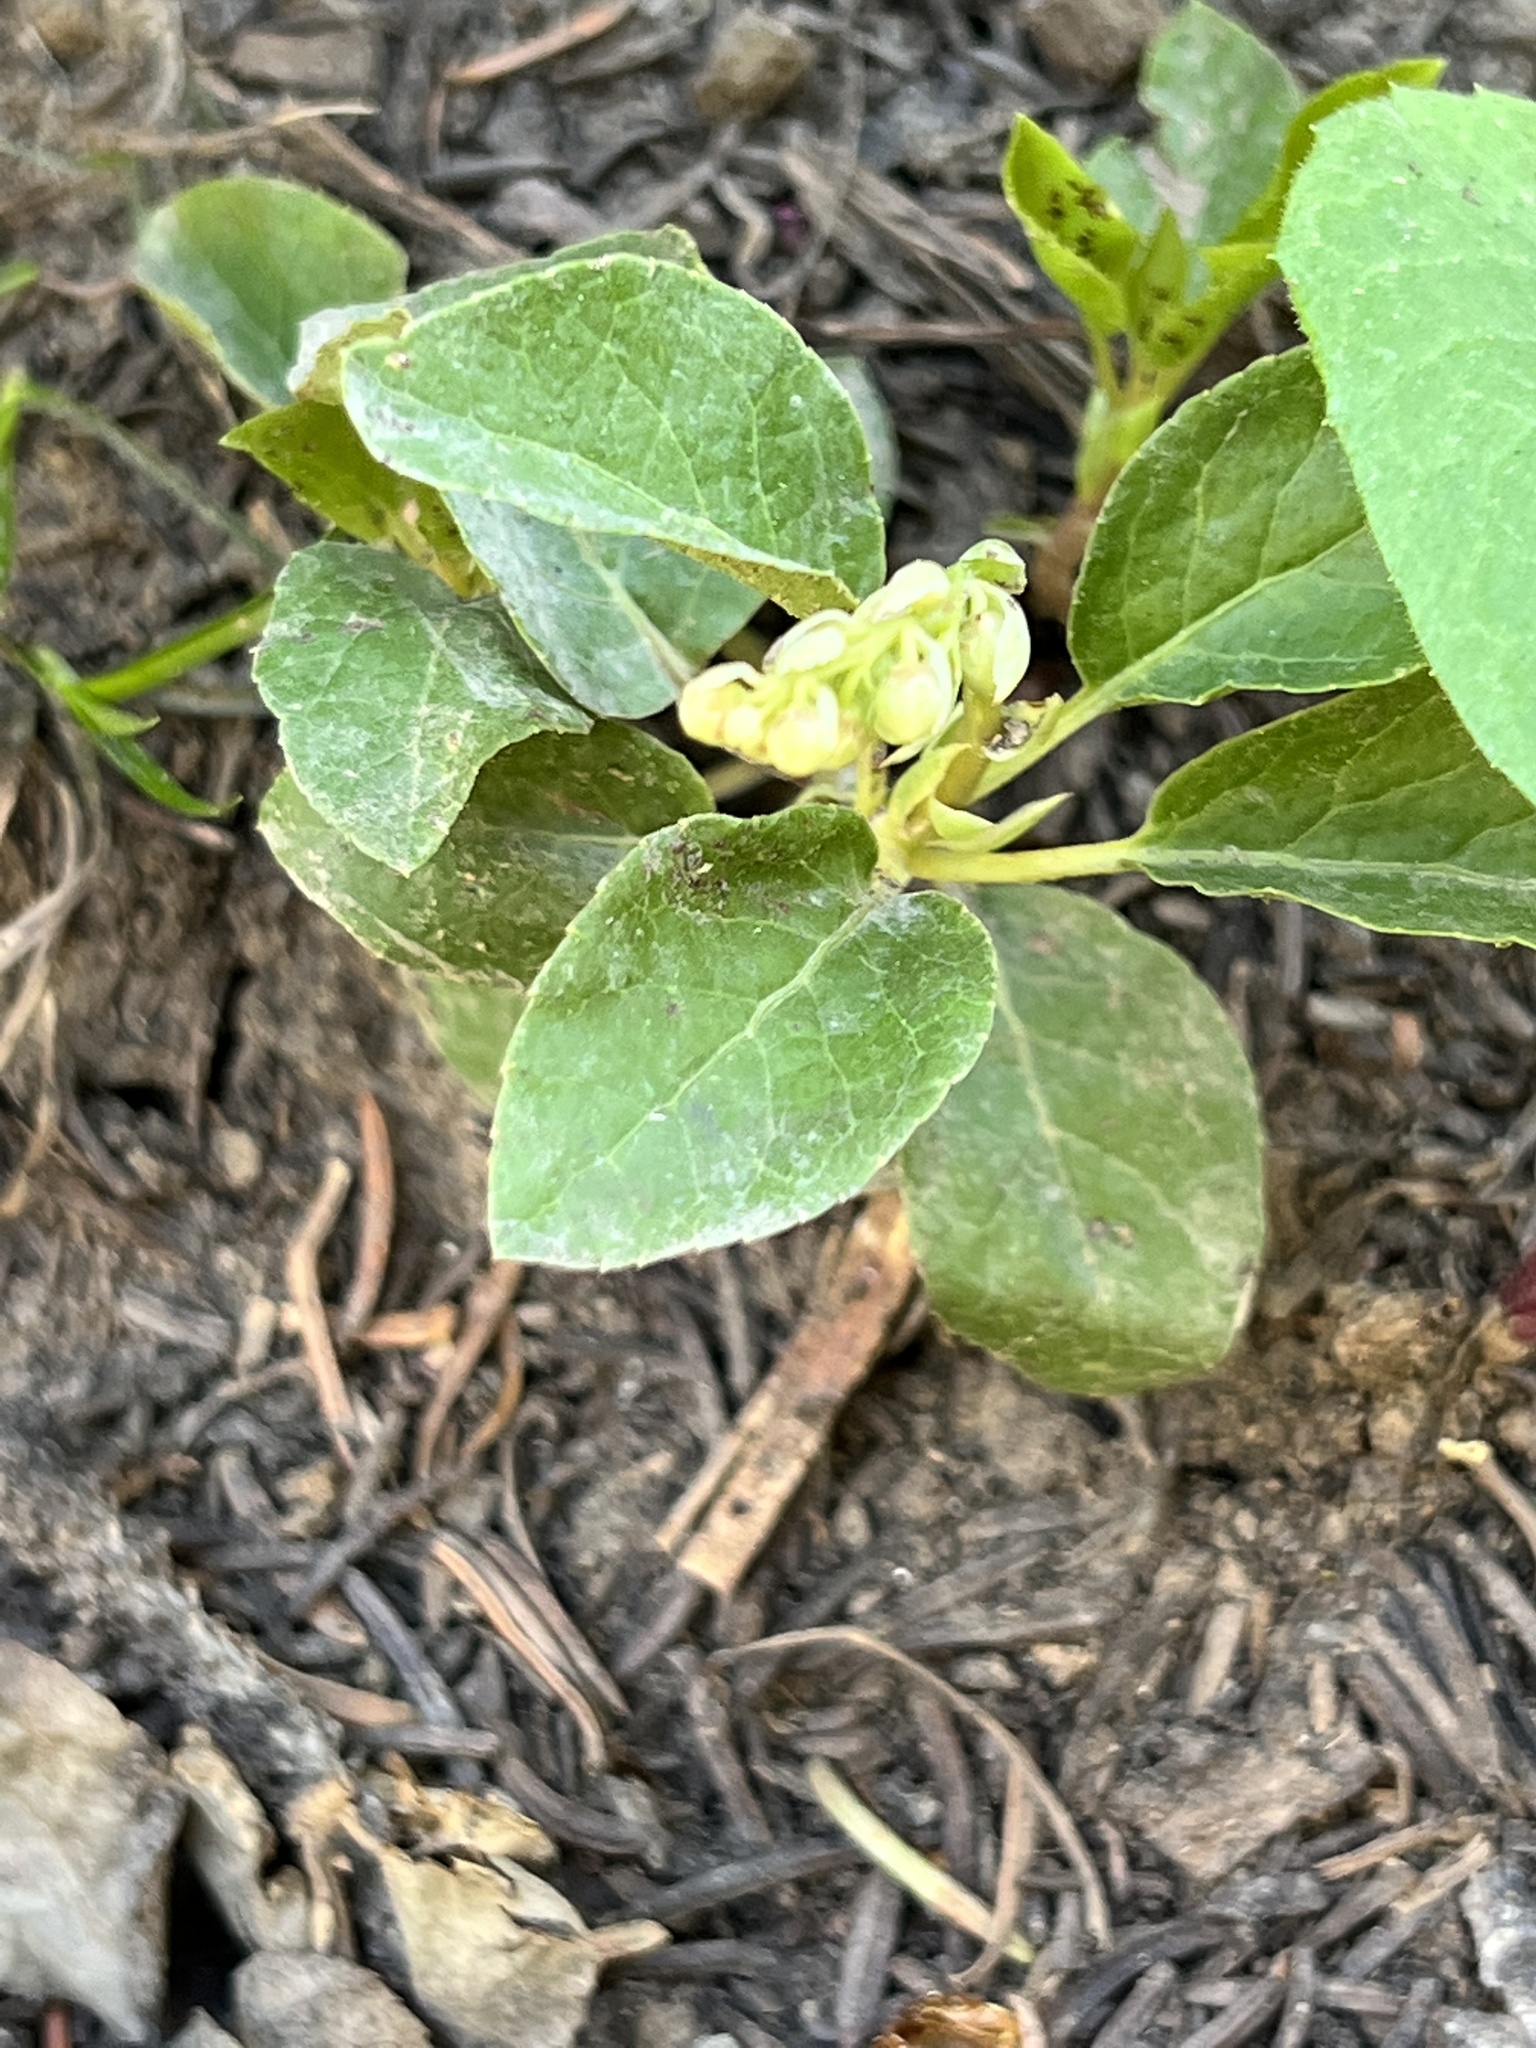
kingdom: Plantae
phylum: Tracheophyta
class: Magnoliopsida
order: Ericales
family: Ericaceae
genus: Orthilia
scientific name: Orthilia secunda
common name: One-sided orthilia
